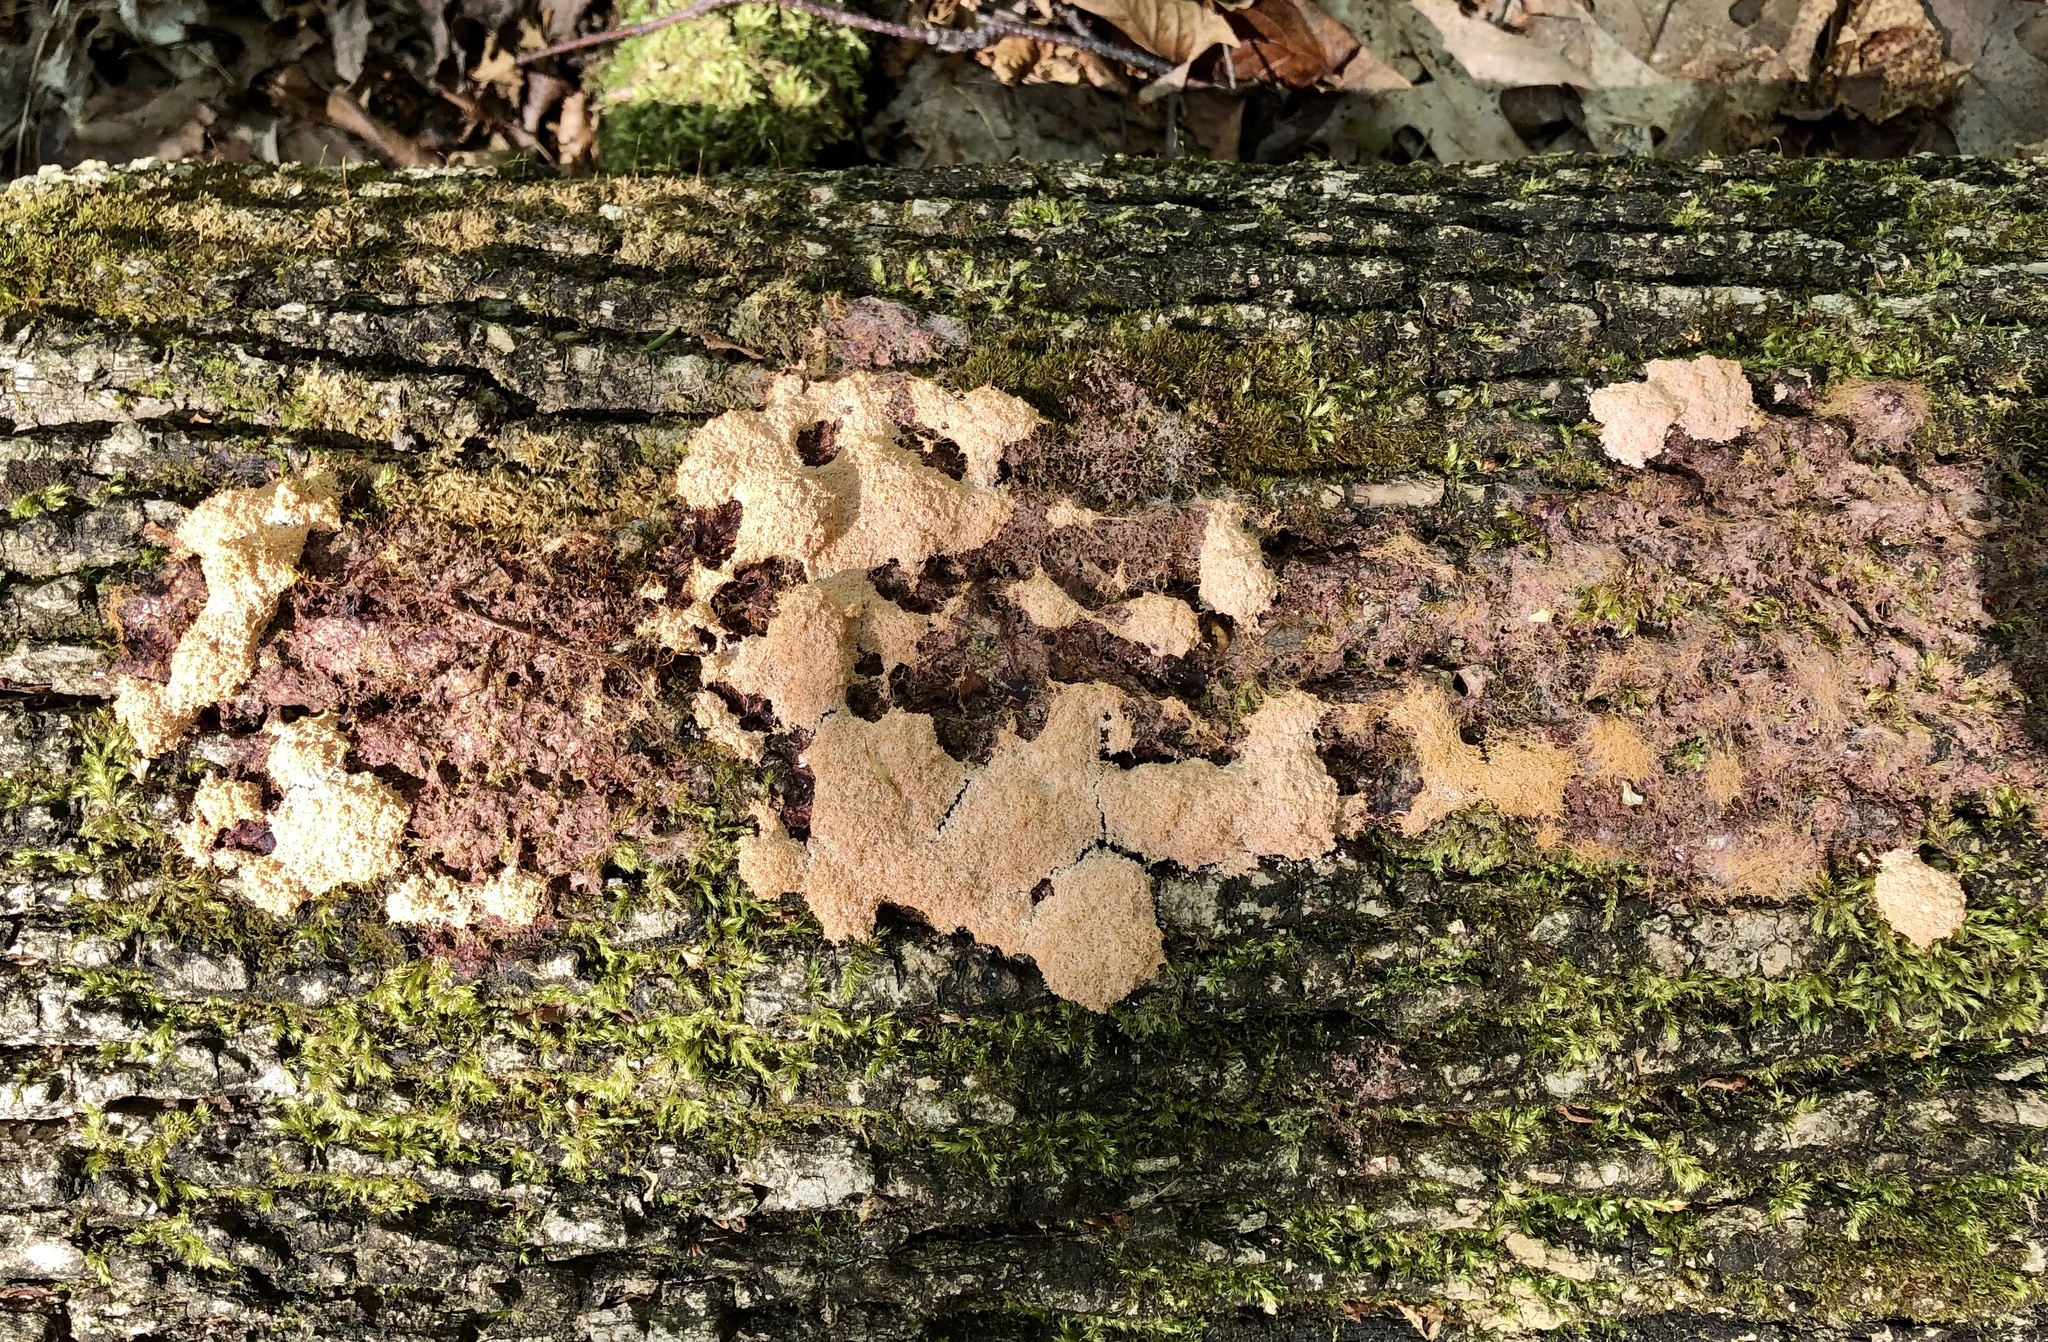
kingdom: Protozoa
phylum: Mycetozoa
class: Myxomycetes
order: Physarales
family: Physaraceae
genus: Fuligo
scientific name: Fuligo septica
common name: Dog vomit slime mold
